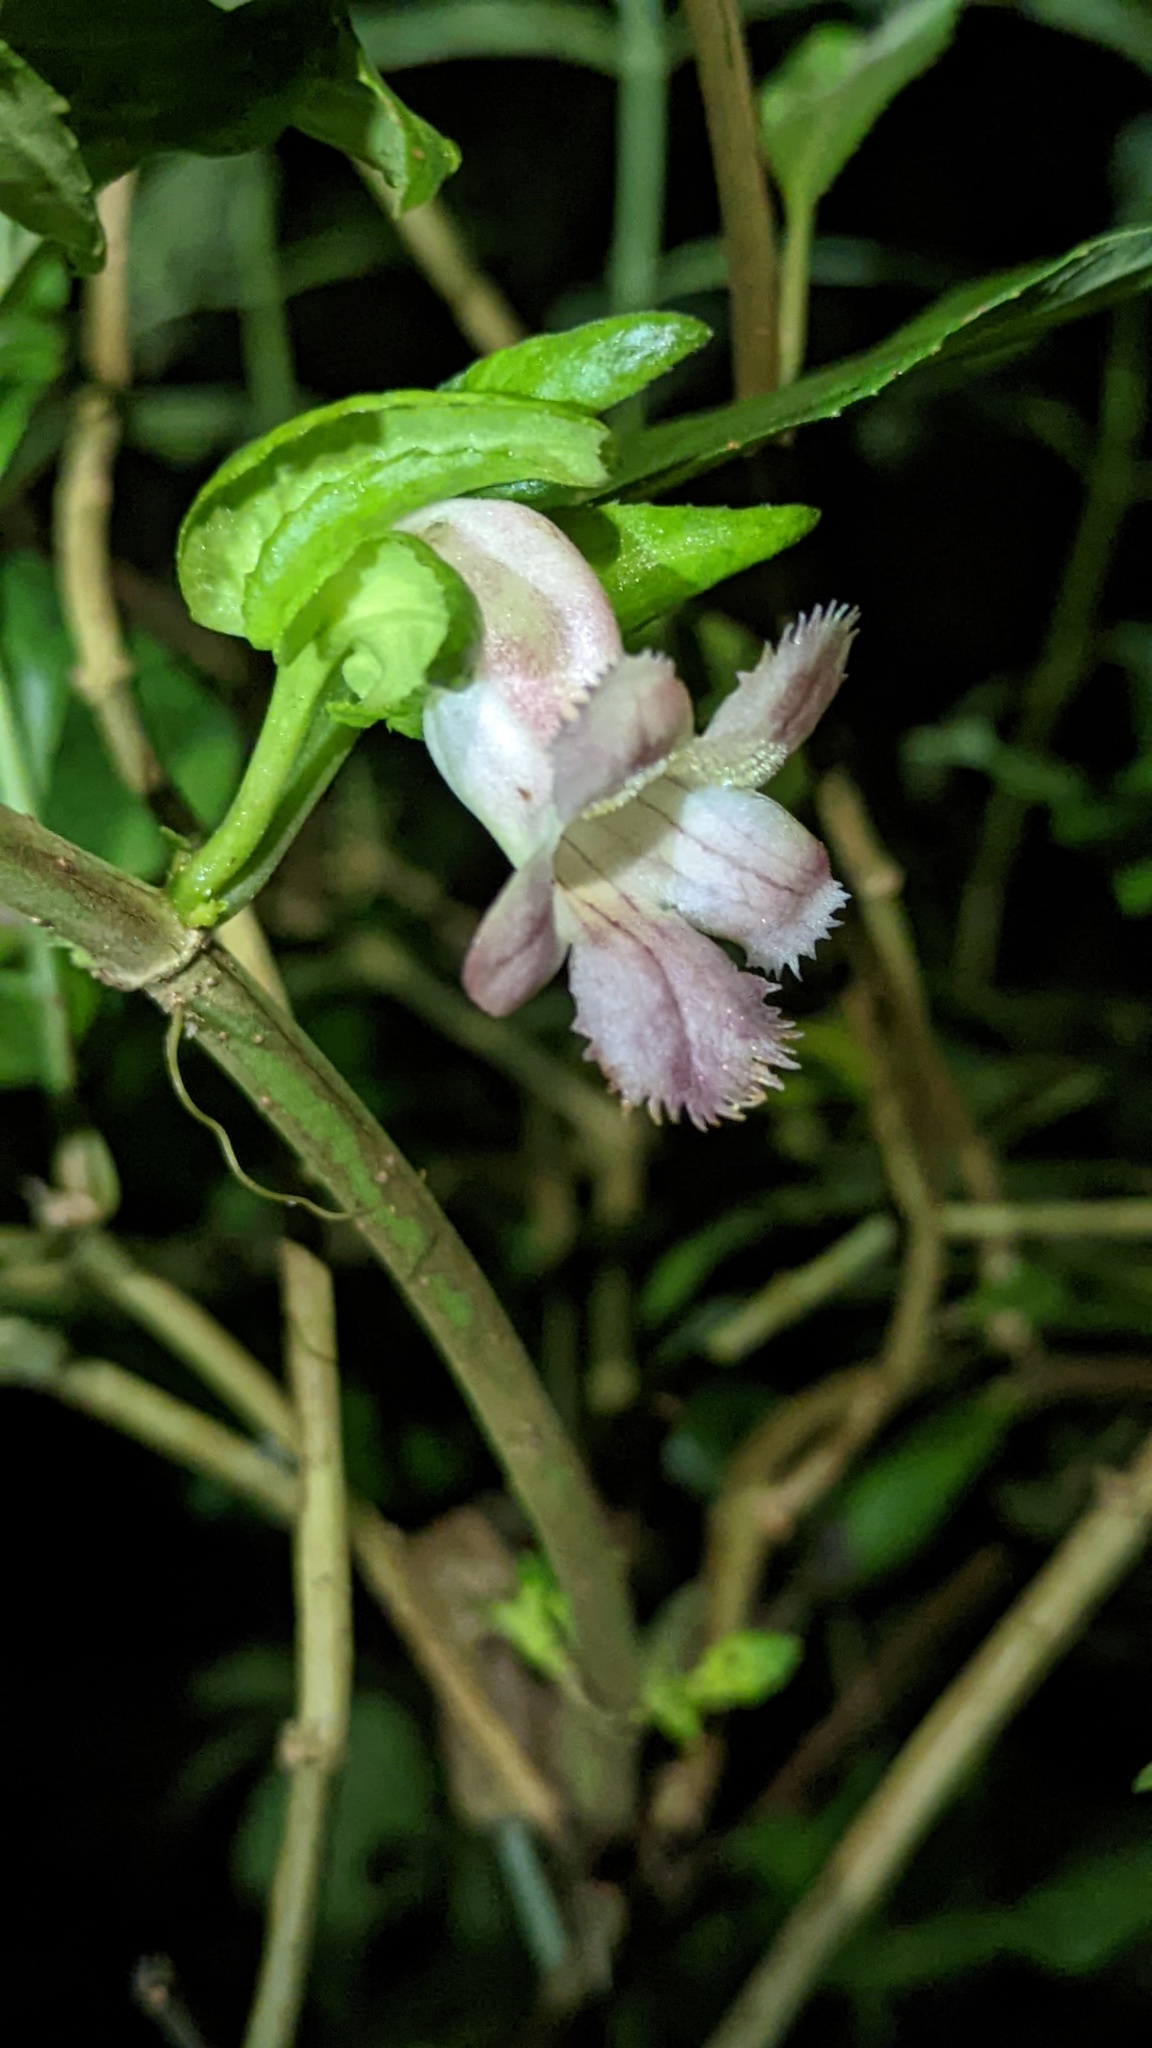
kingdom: Plantae
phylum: Tracheophyta
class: Magnoliopsida
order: Lamiales
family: Gesneriaceae
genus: Drymonia
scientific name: Drymonia serrulata
